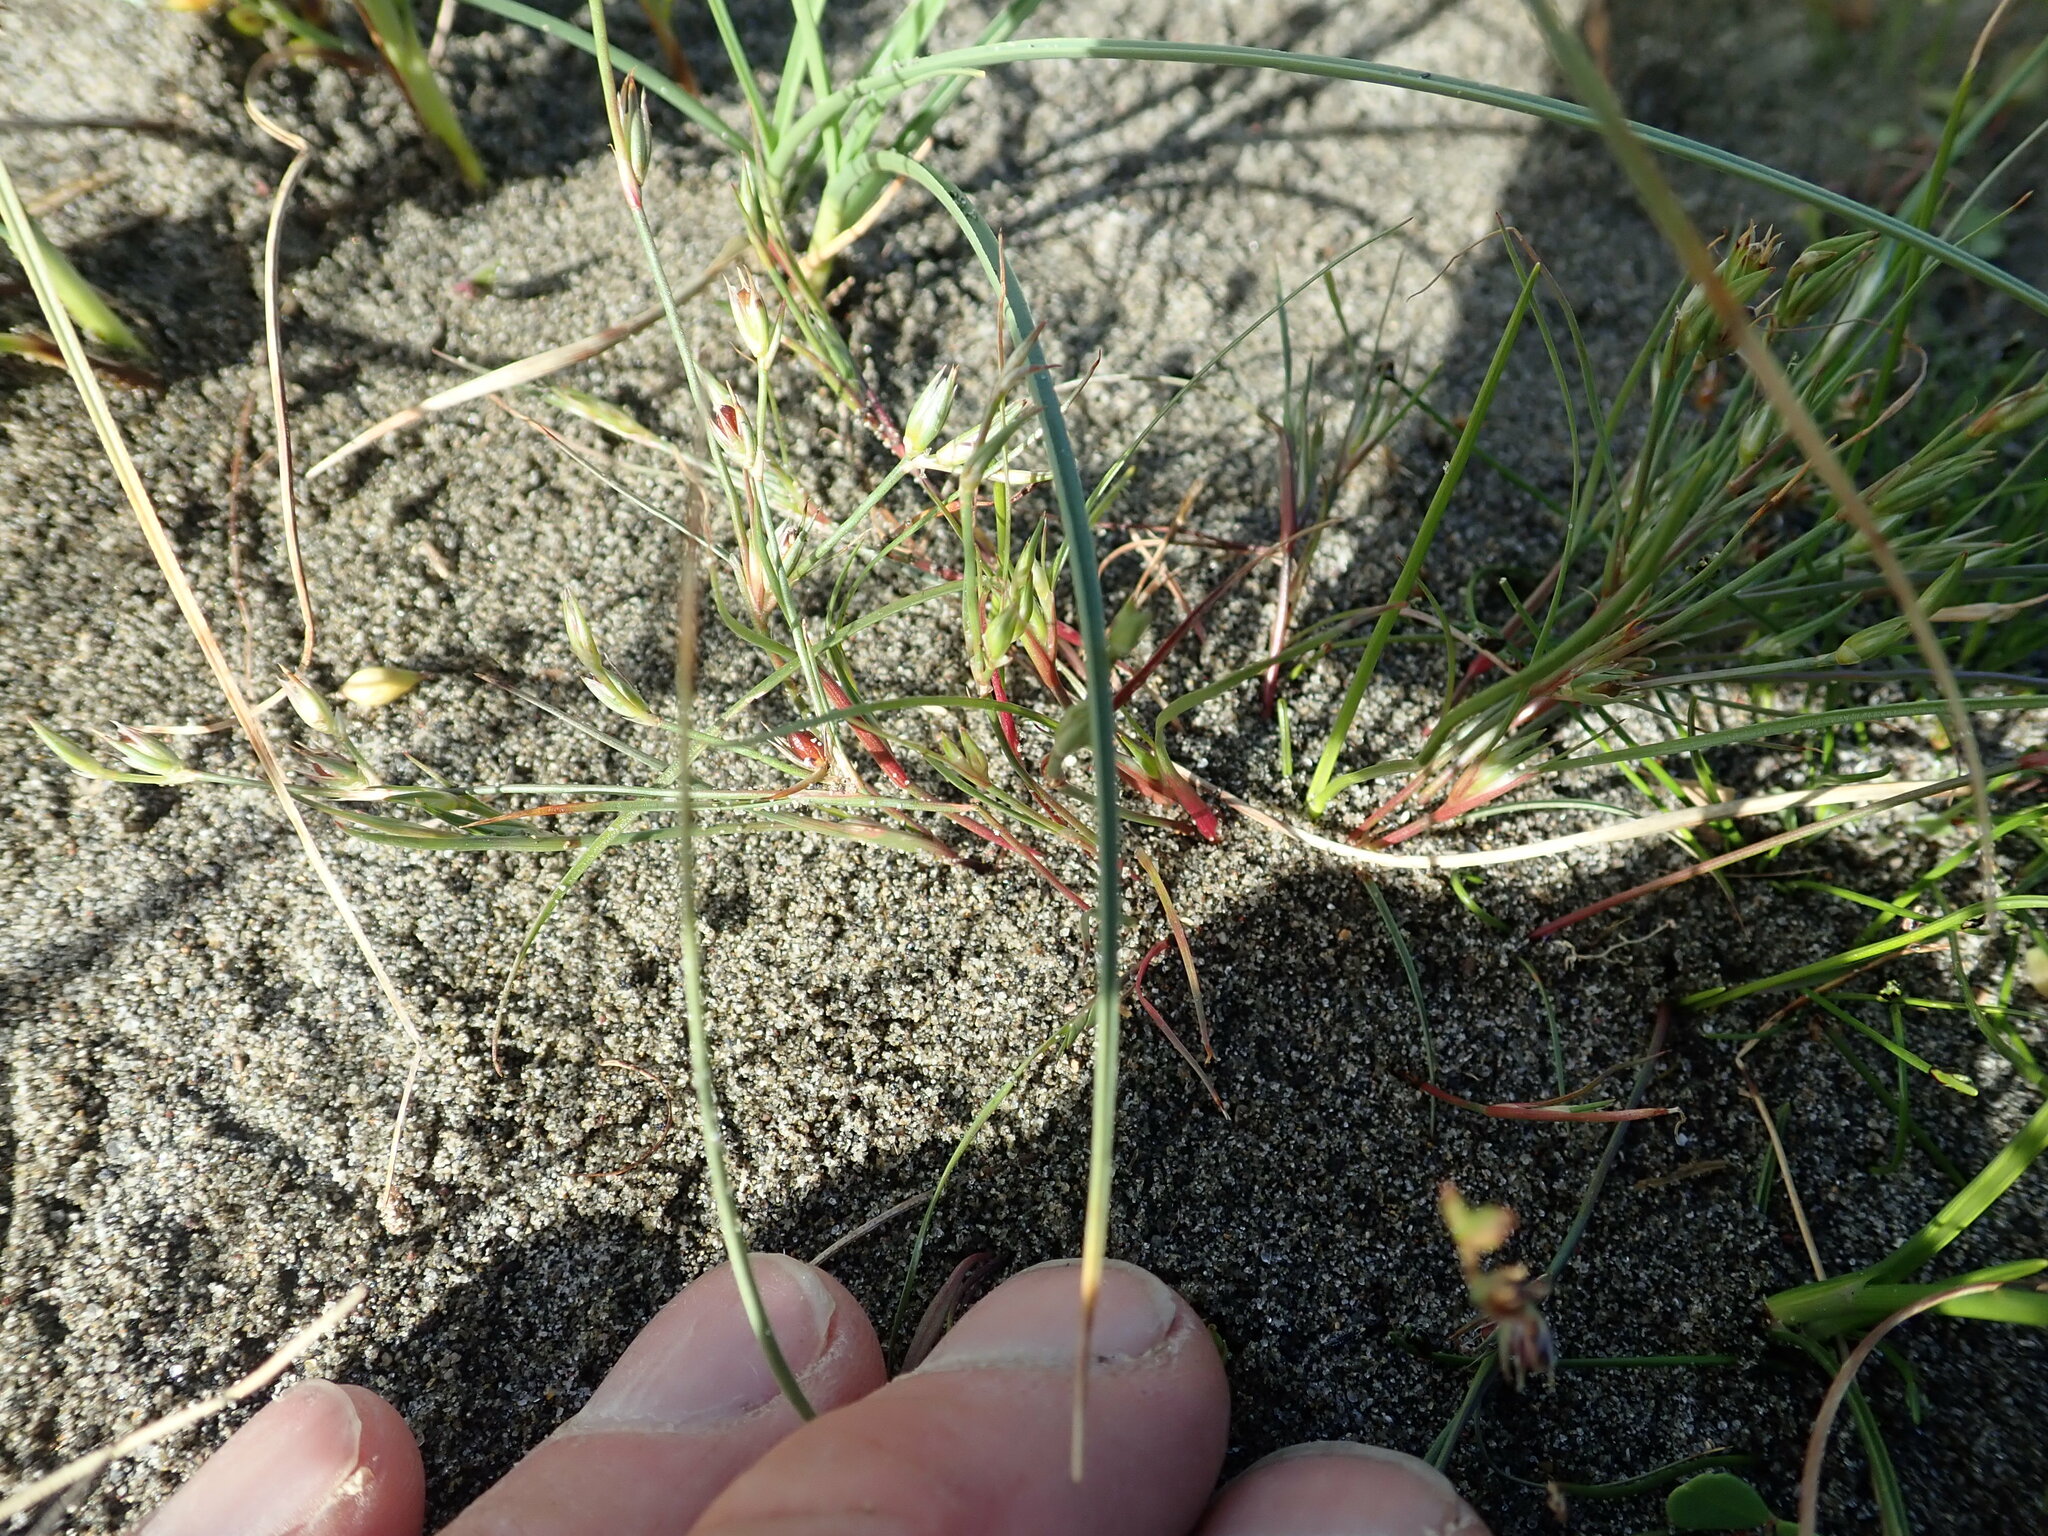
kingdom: Plantae
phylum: Tracheophyta
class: Liliopsida
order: Poales
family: Juncaceae
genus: Juncus
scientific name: Juncus bufonius
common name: Toad rush
